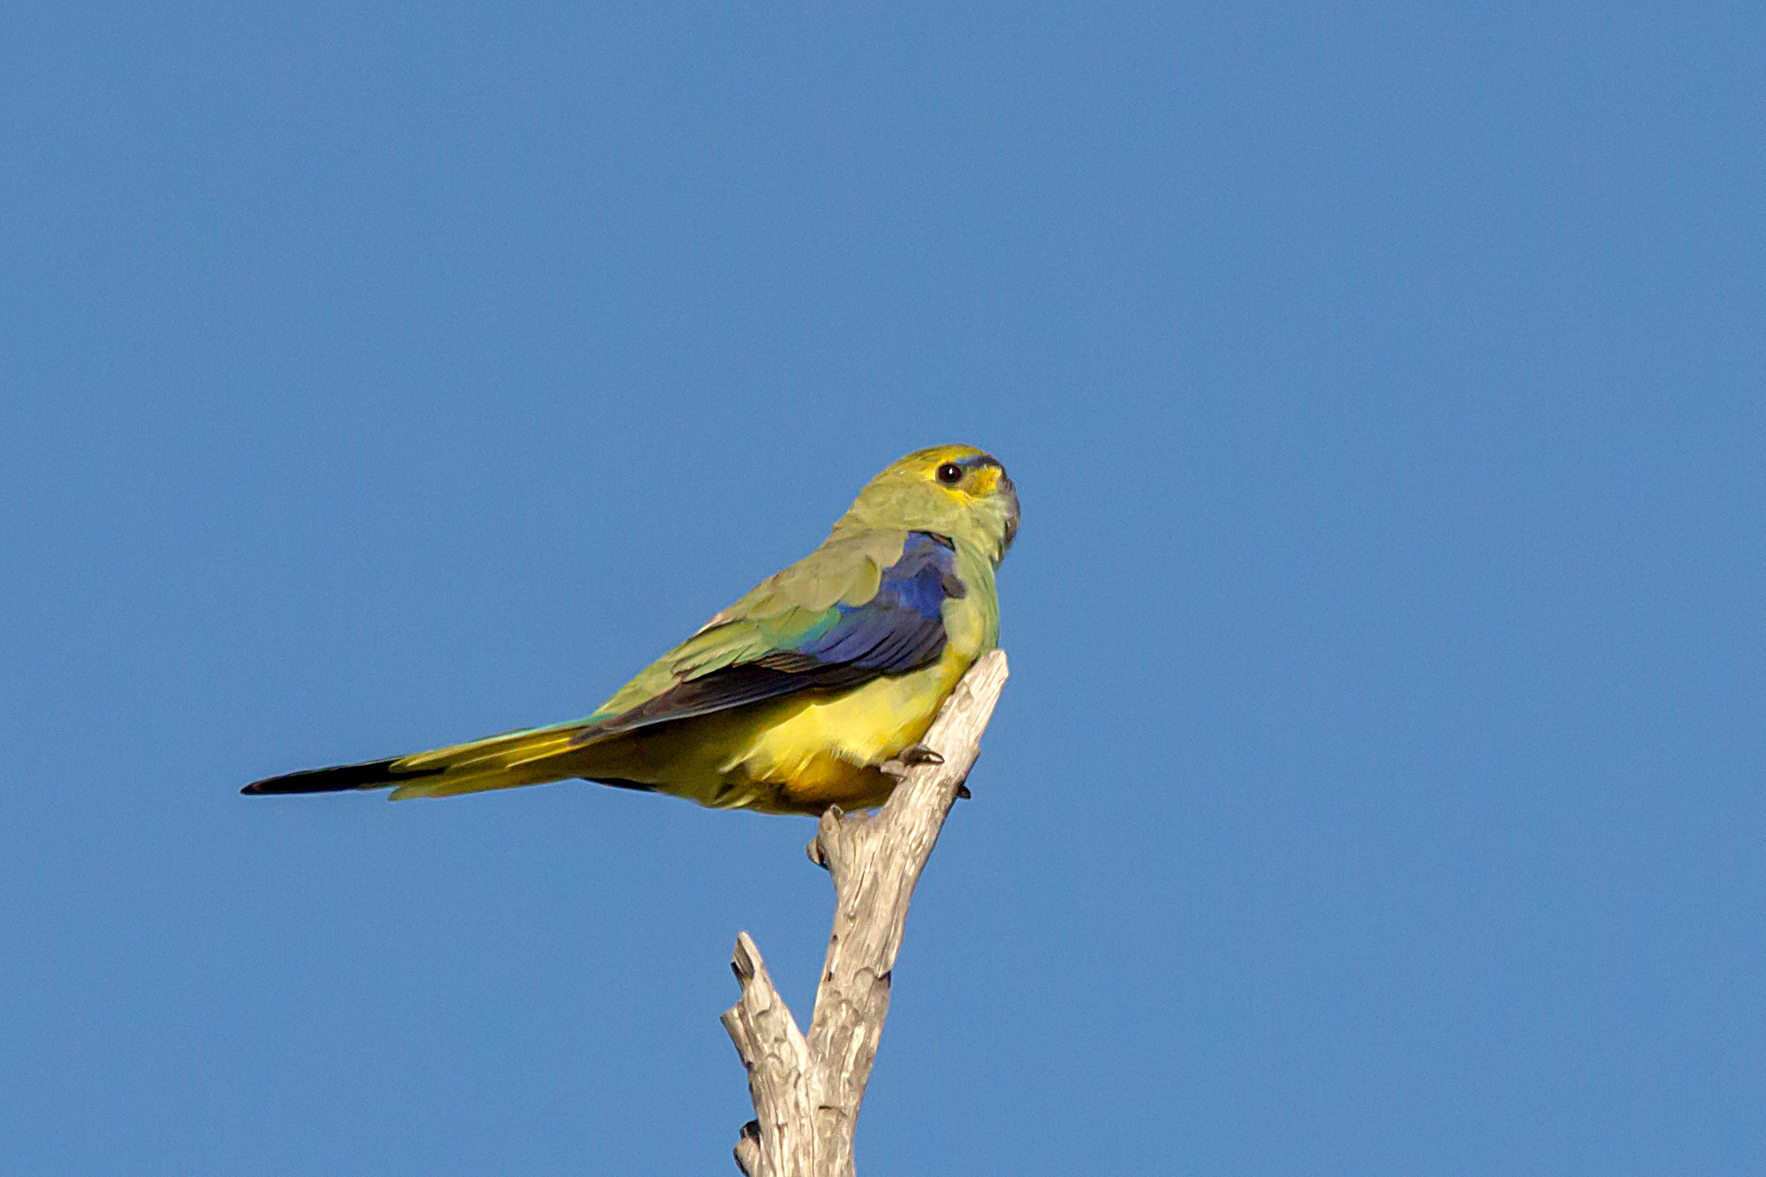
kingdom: Animalia
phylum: Chordata
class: Aves
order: Psittaciformes
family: Psittacidae
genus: Neophema
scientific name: Neophema chrysostoma
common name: Blue-winged parrot
